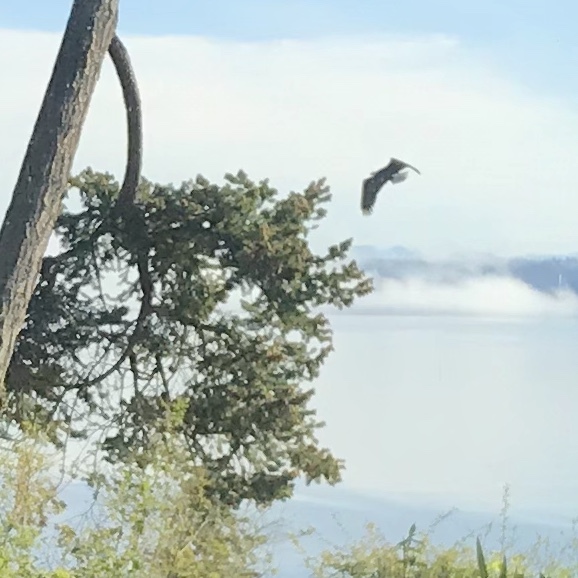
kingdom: Animalia
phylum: Chordata
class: Aves
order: Accipitriformes
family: Accipitridae
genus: Haliaeetus
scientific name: Haliaeetus leucocephalus
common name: Bald eagle
